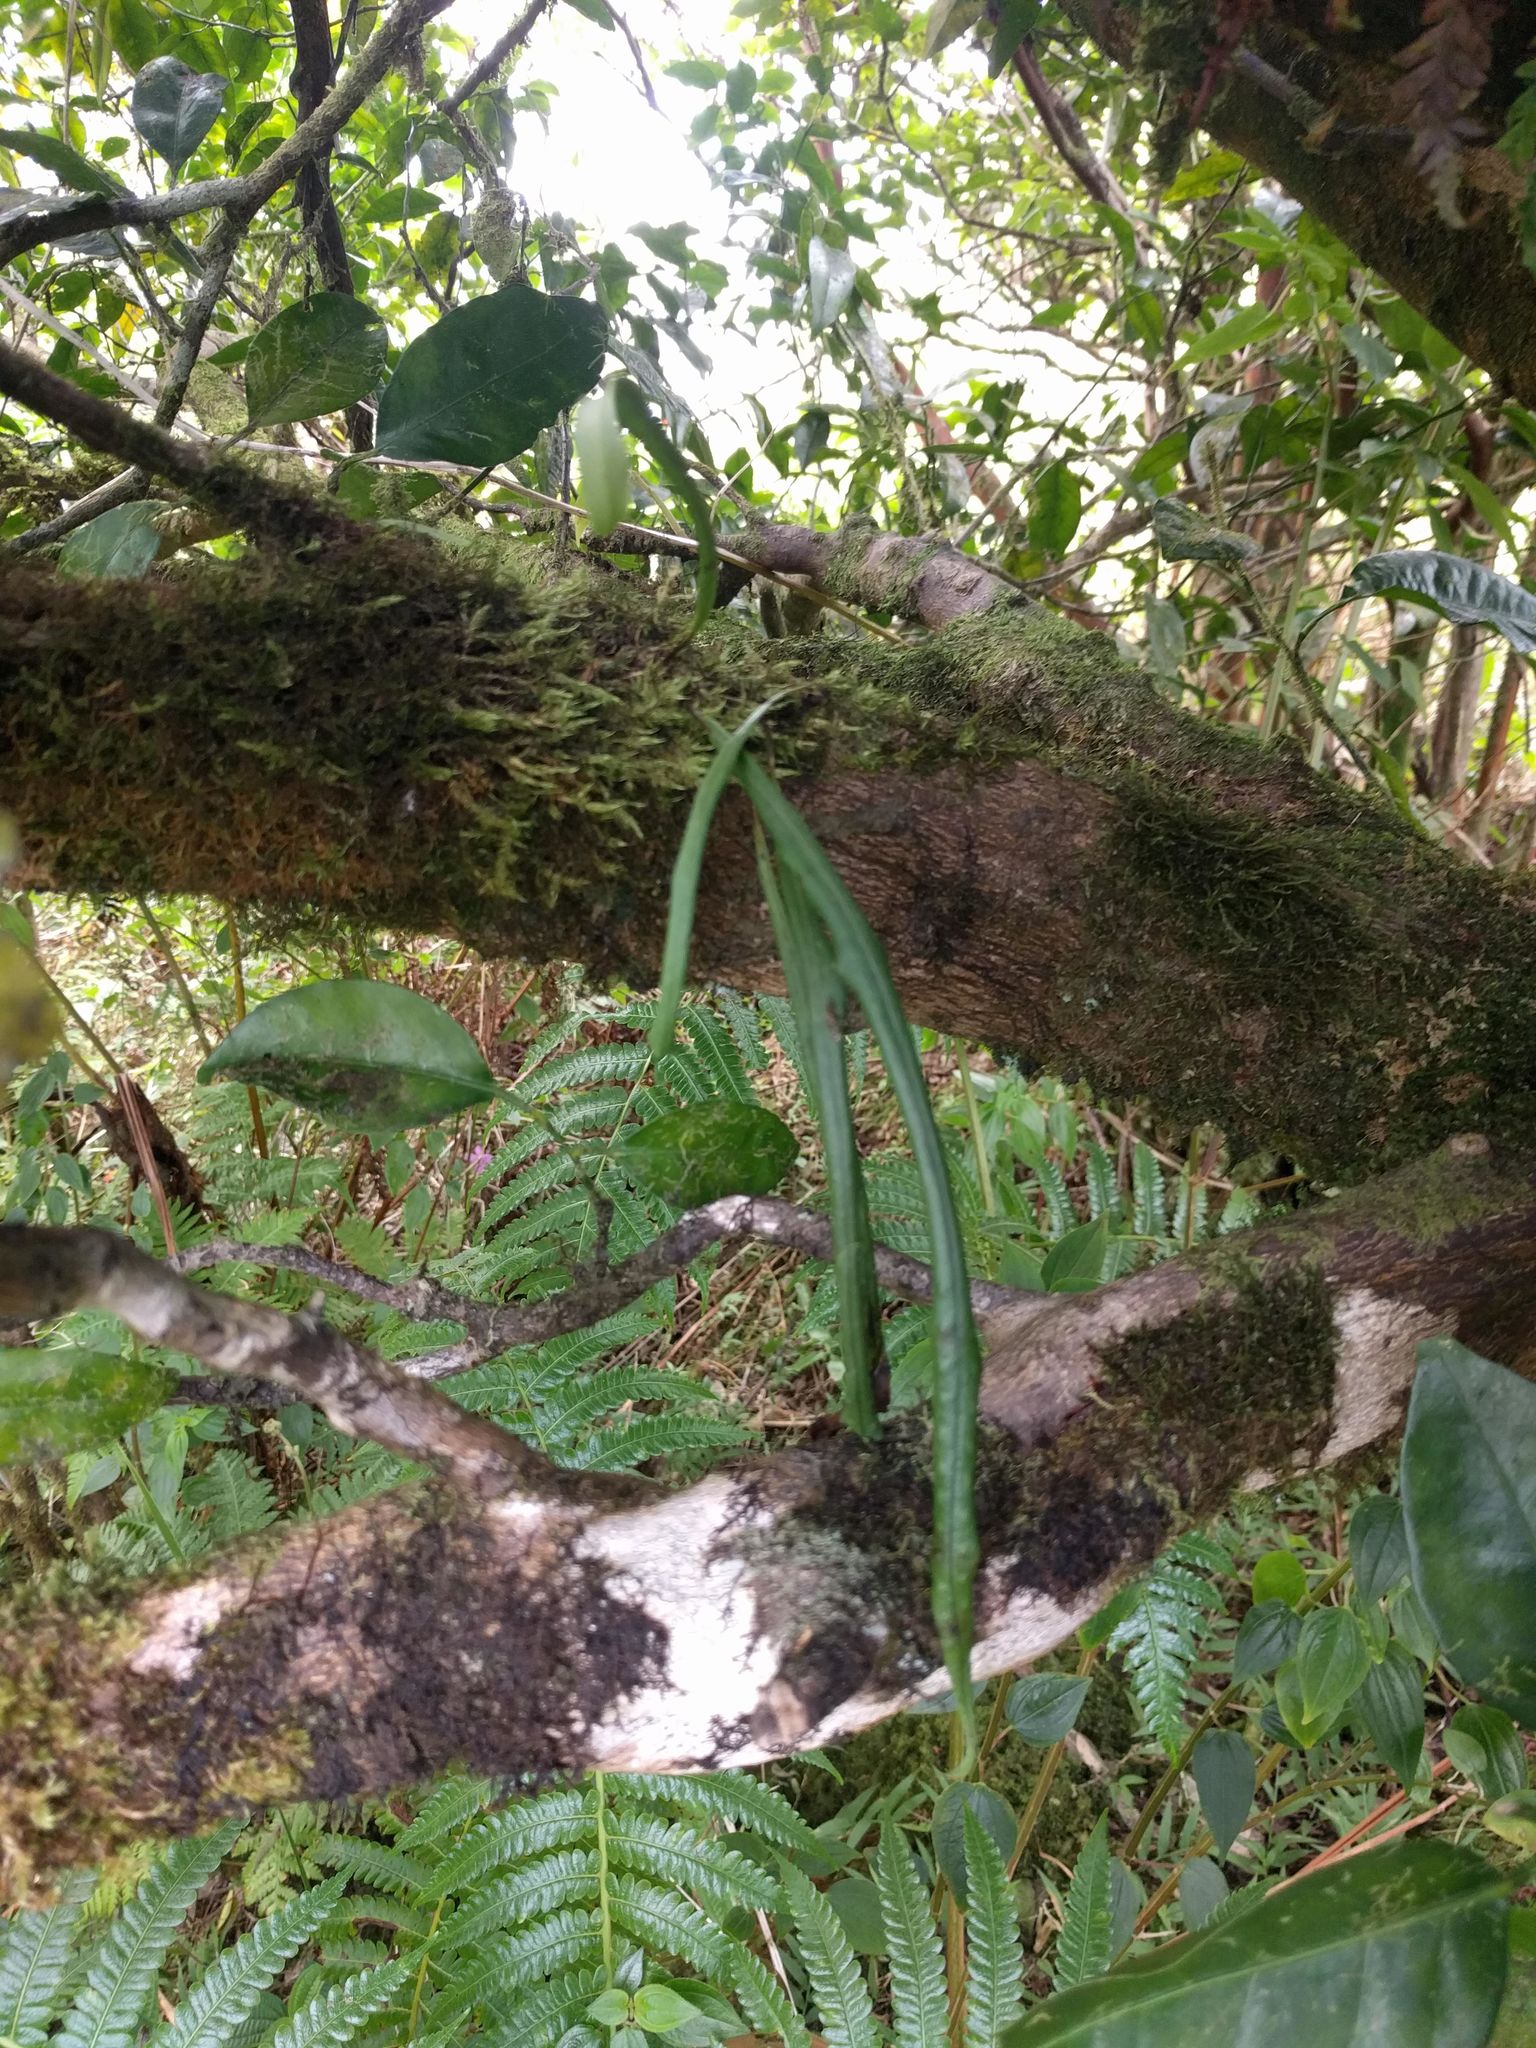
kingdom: Plantae
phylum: Tracheophyta
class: Polypodiopsida
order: Polypodiales
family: Polypodiaceae
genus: Lepisorus
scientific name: Lepisorus thunbergianus
